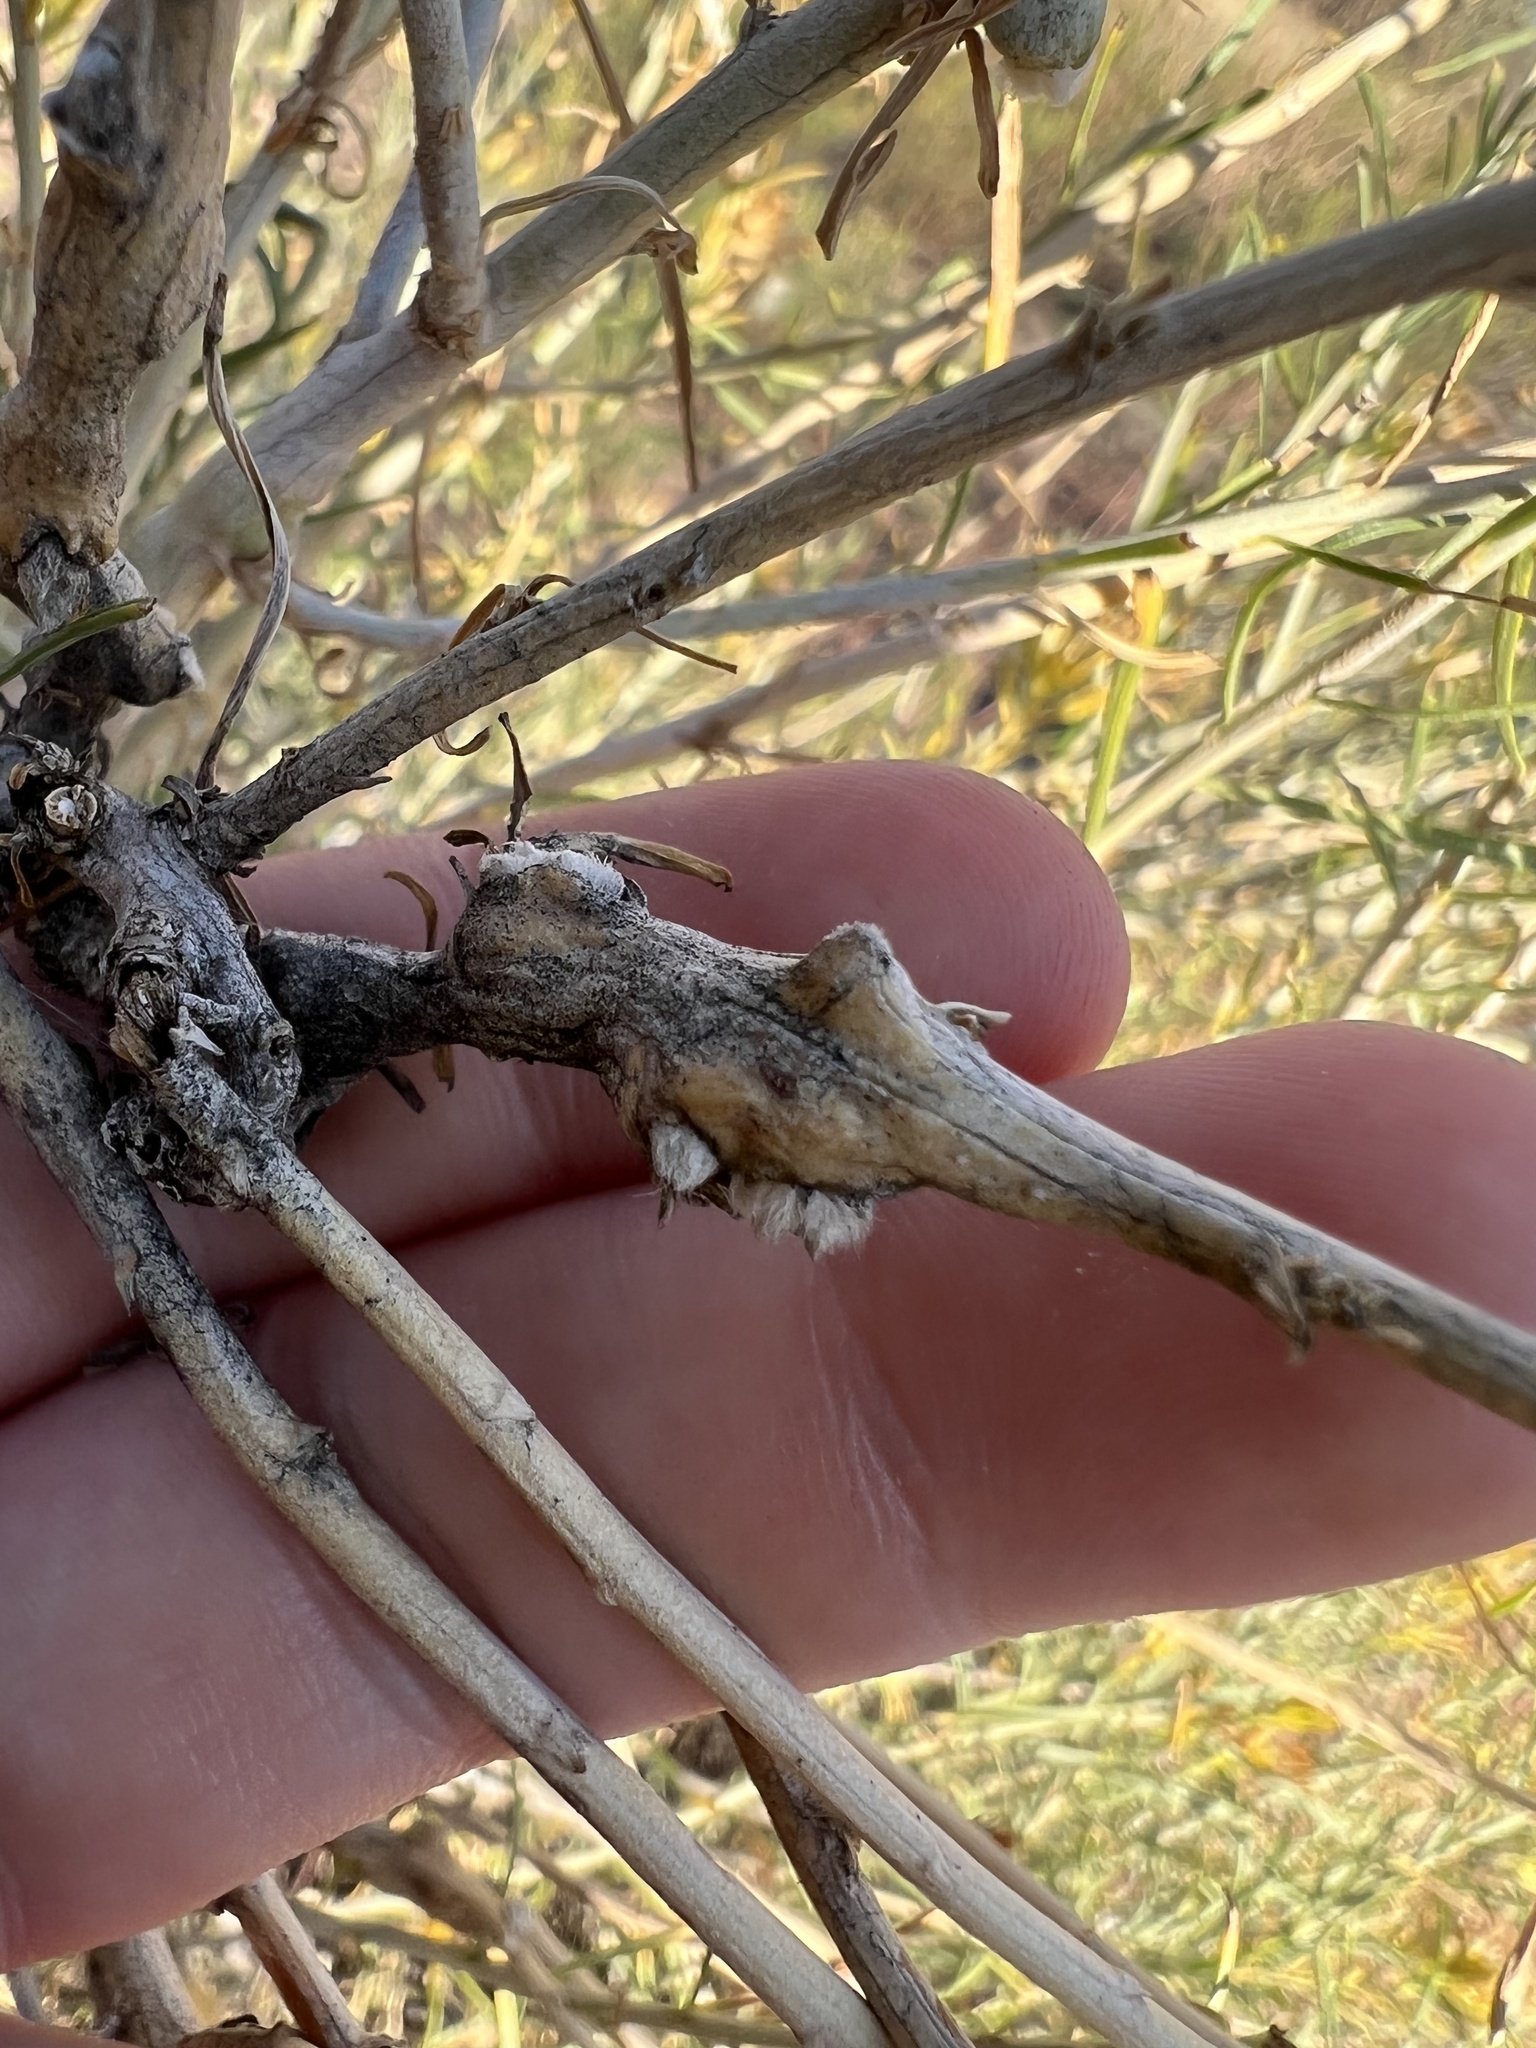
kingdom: Animalia
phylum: Arthropoda
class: Insecta
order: Diptera
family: Cecidomyiidae
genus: Rhopalomyia
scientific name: Rhopalomyia chrysothamni
